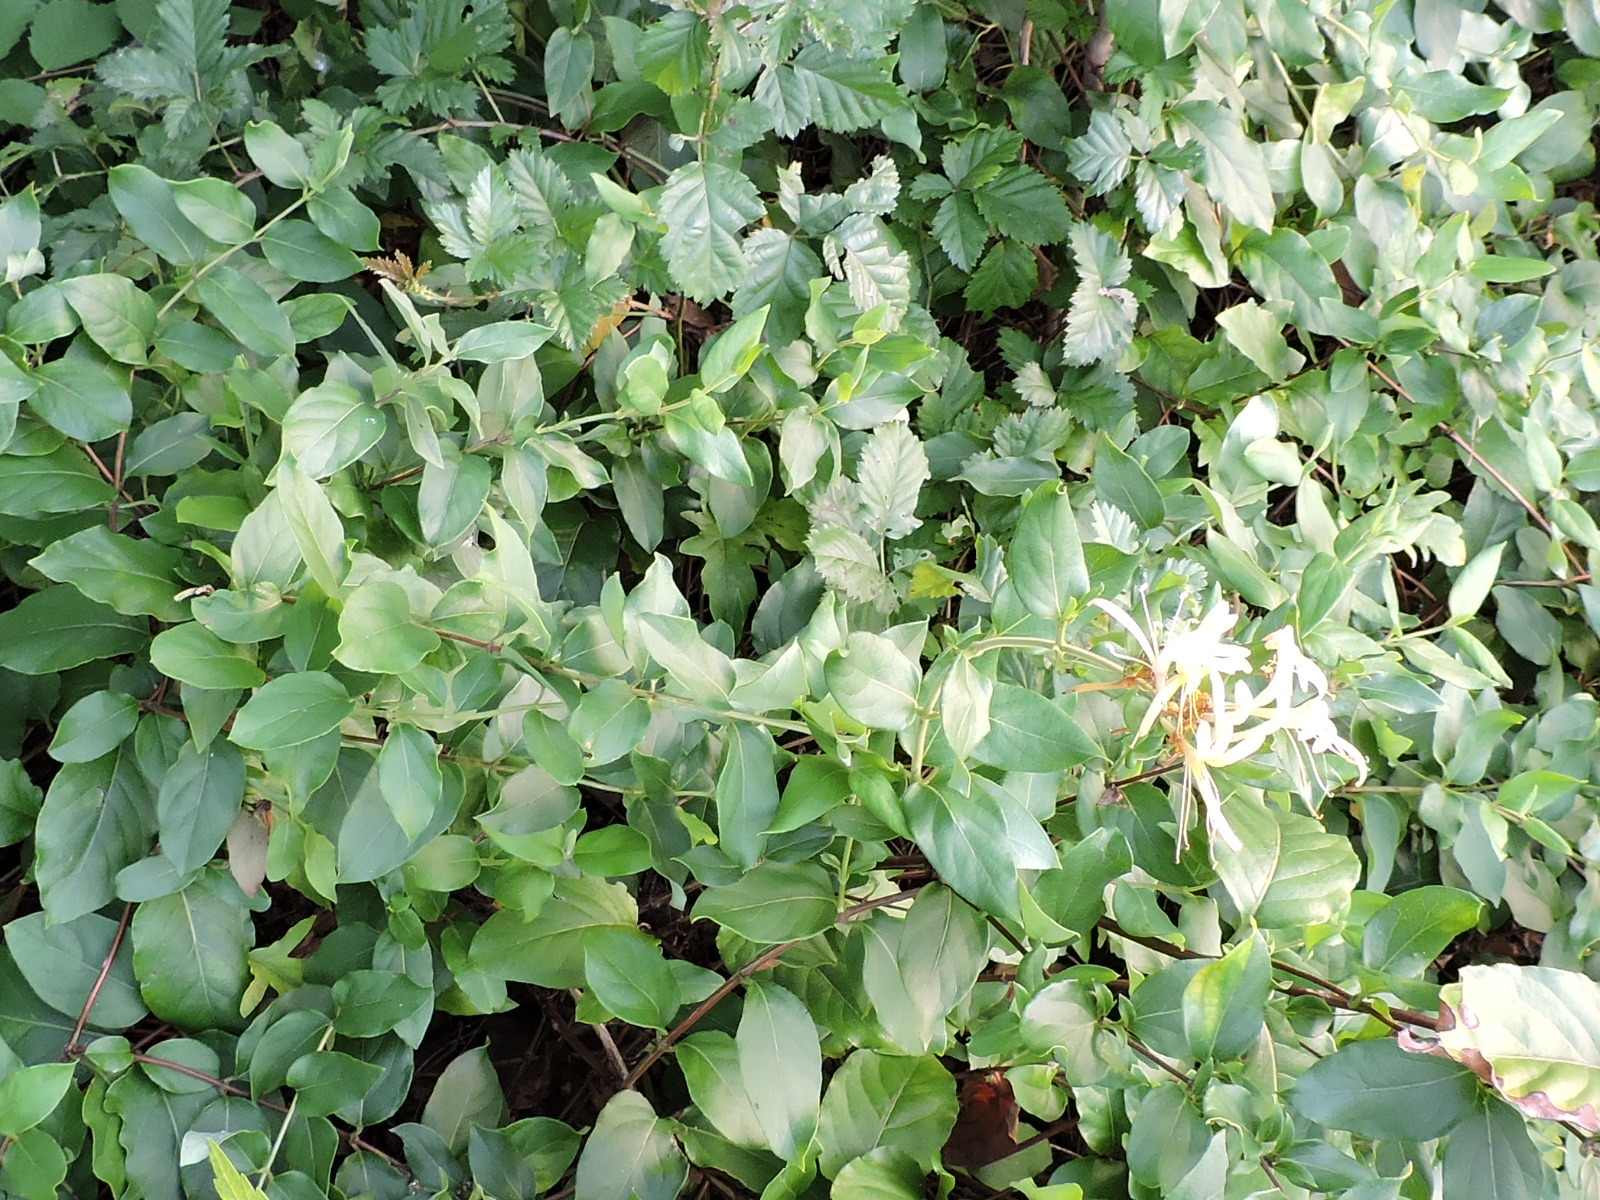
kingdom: Plantae
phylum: Tracheophyta
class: Magnoliopsida
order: Dipsacales
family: Caprifoliaceae
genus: Lonicera
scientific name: Lonicera japonica
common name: Japanese honeysuckle
